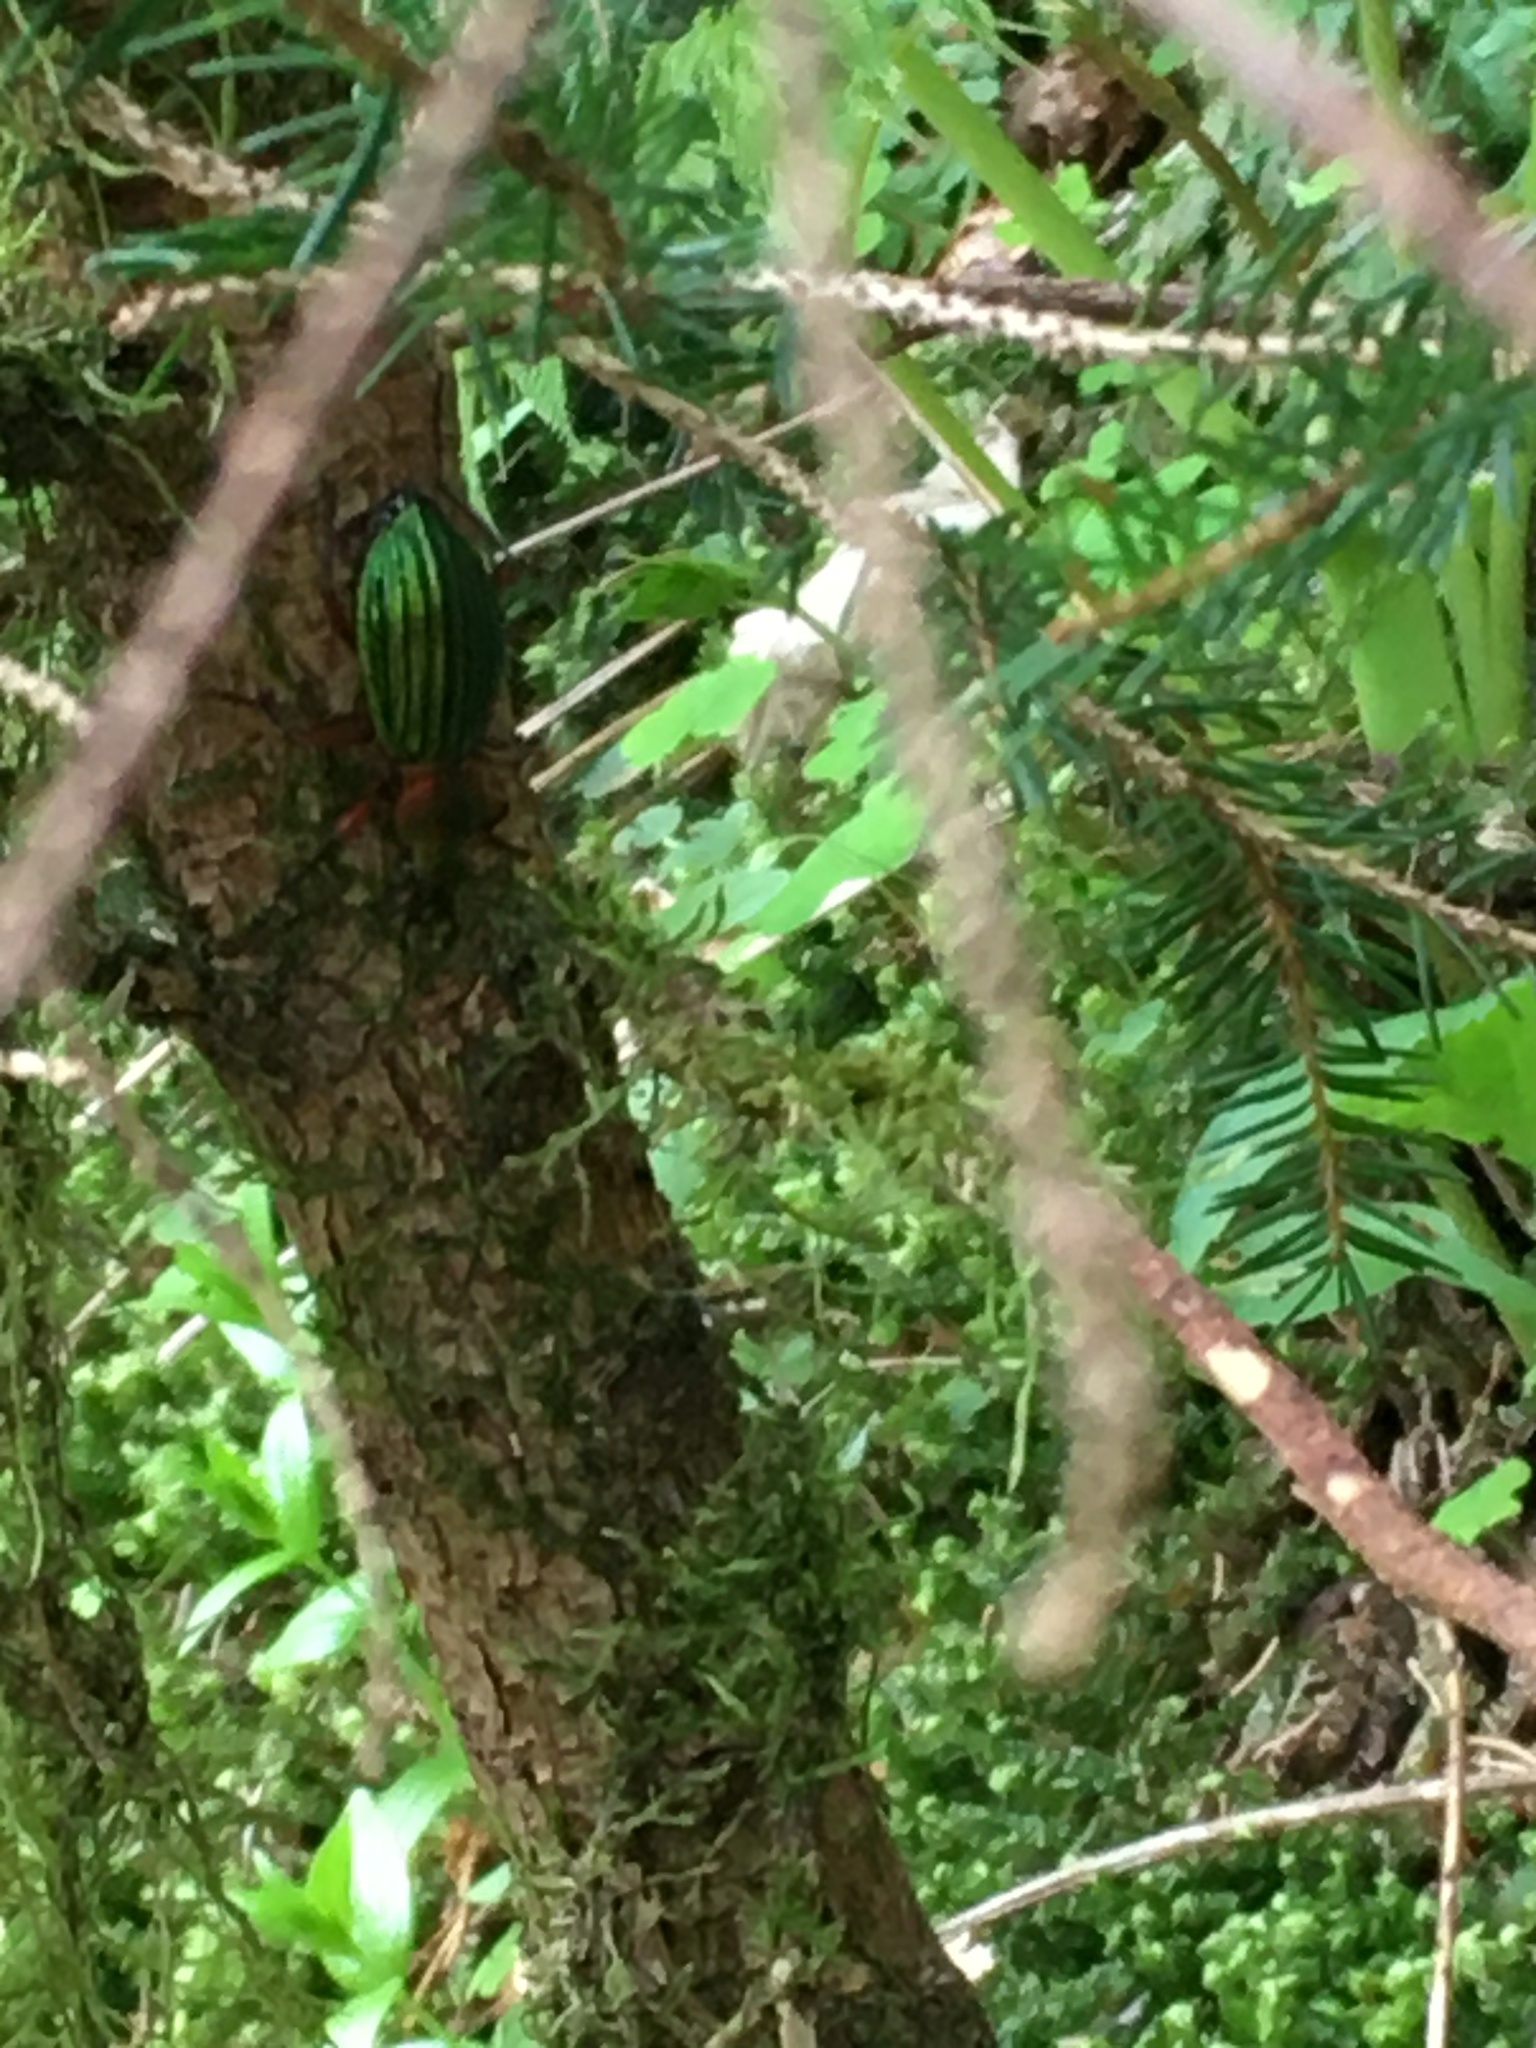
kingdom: Animalia
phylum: Arthropoda
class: Insecta
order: Coleoptera
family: Carabidae
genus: Carabus
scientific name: Carabus auronitens
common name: Carabus auronitens
